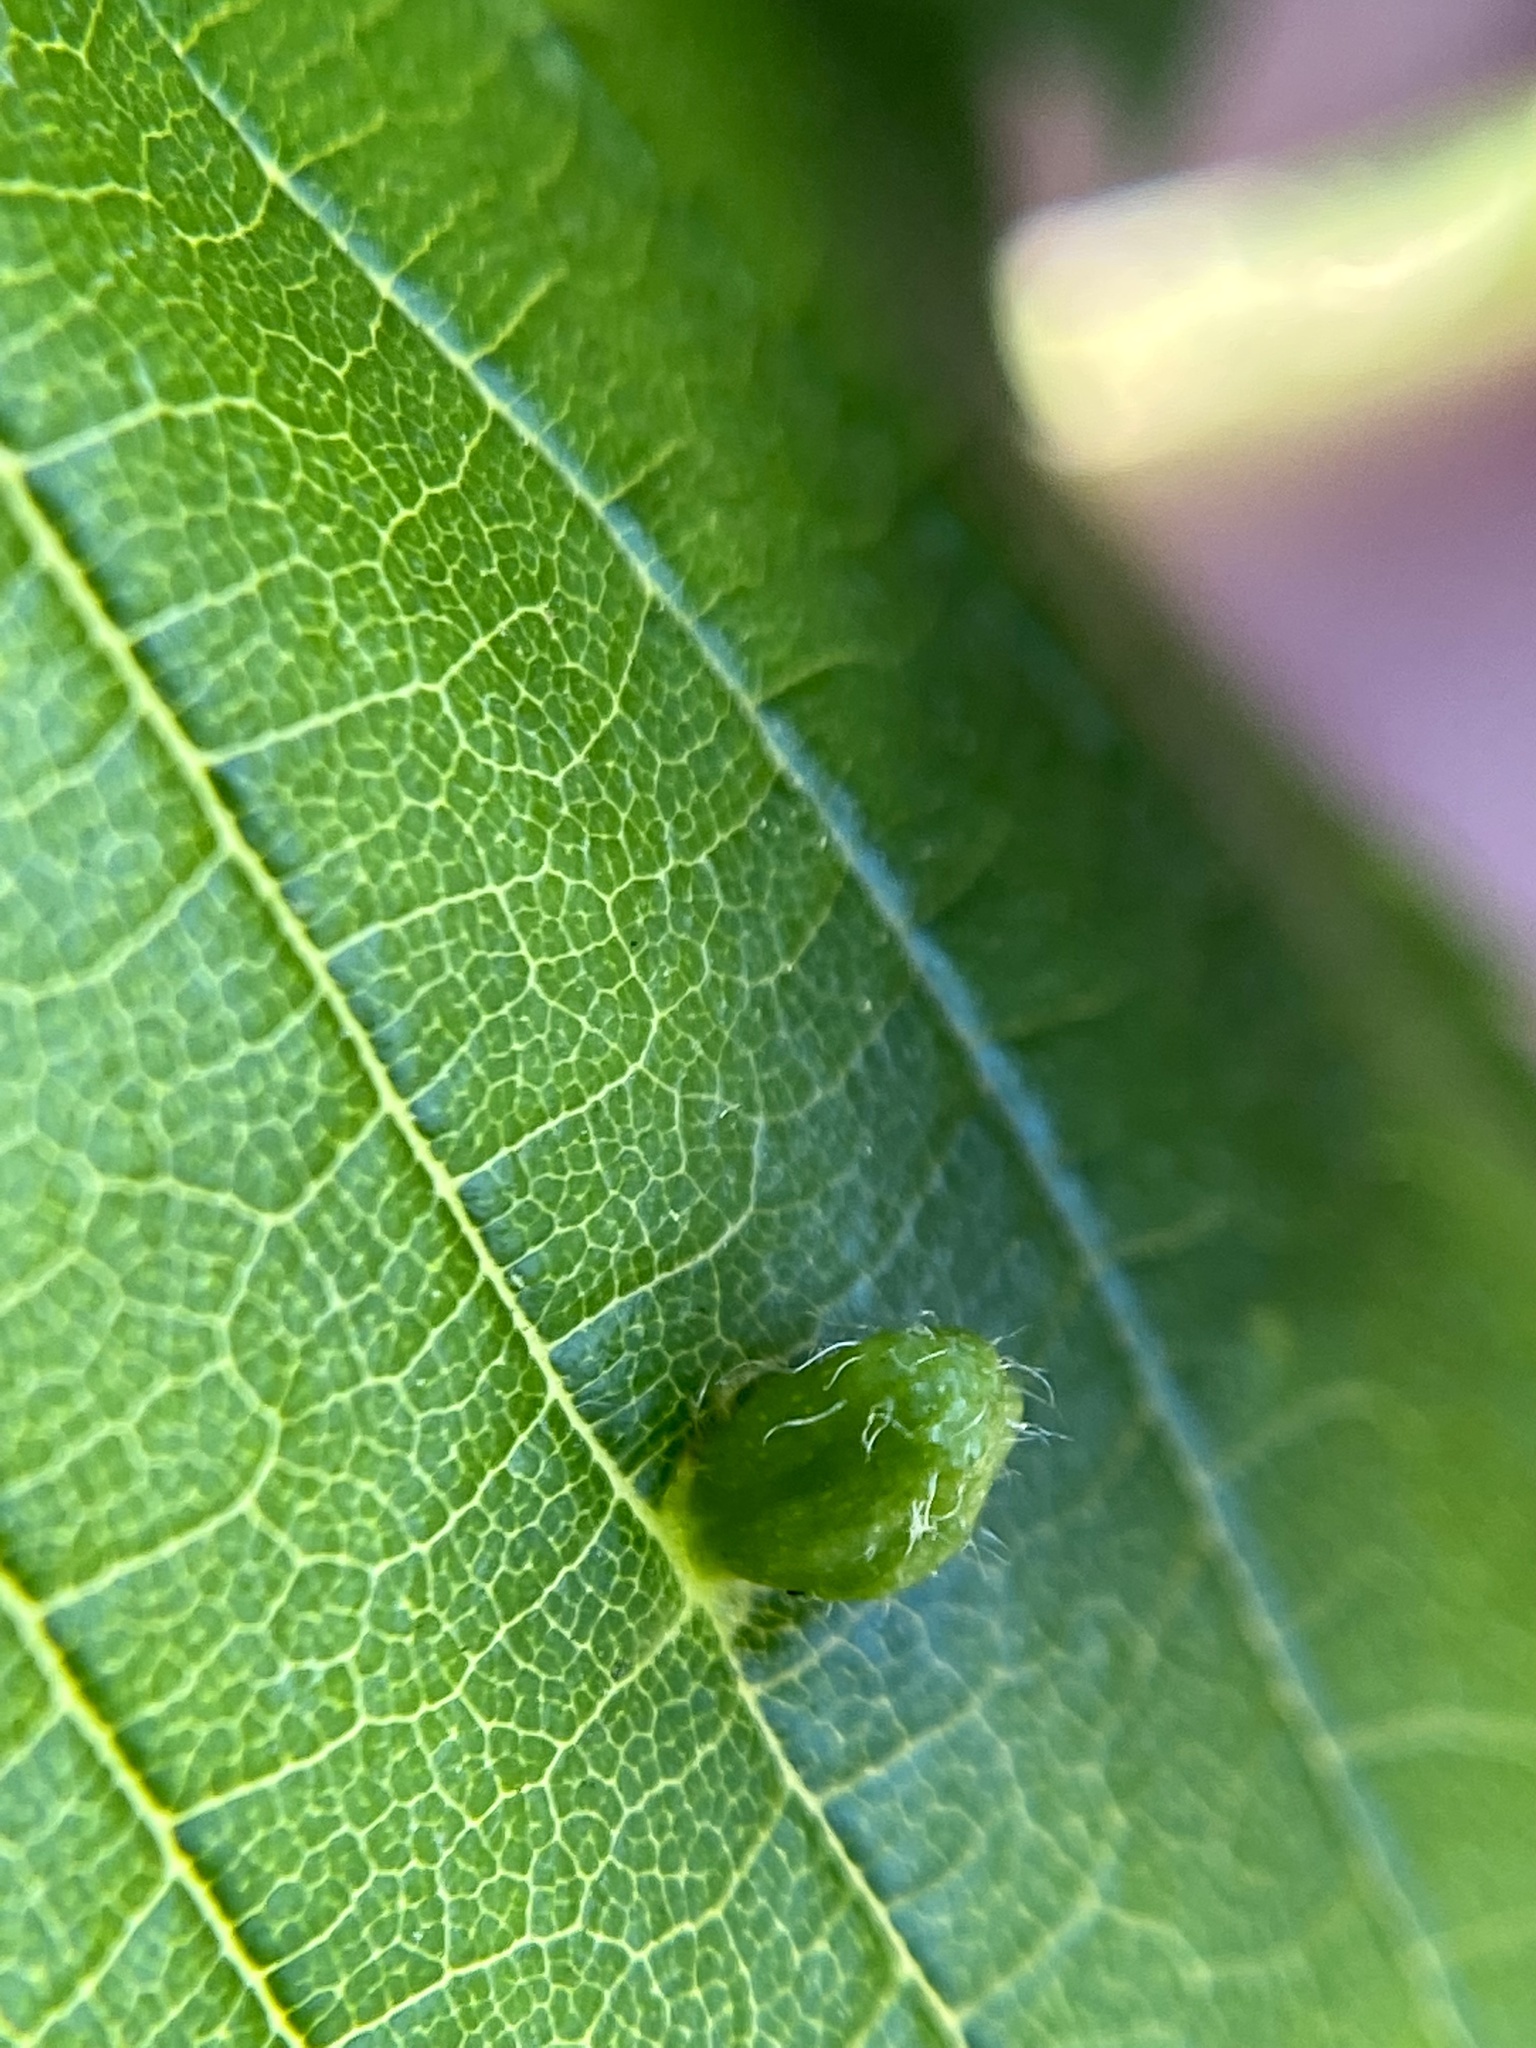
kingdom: Animalia
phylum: Arthropoda
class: Arachnida
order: Trombidiformes
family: Eriophyidae
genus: Aceria
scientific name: Aceria
